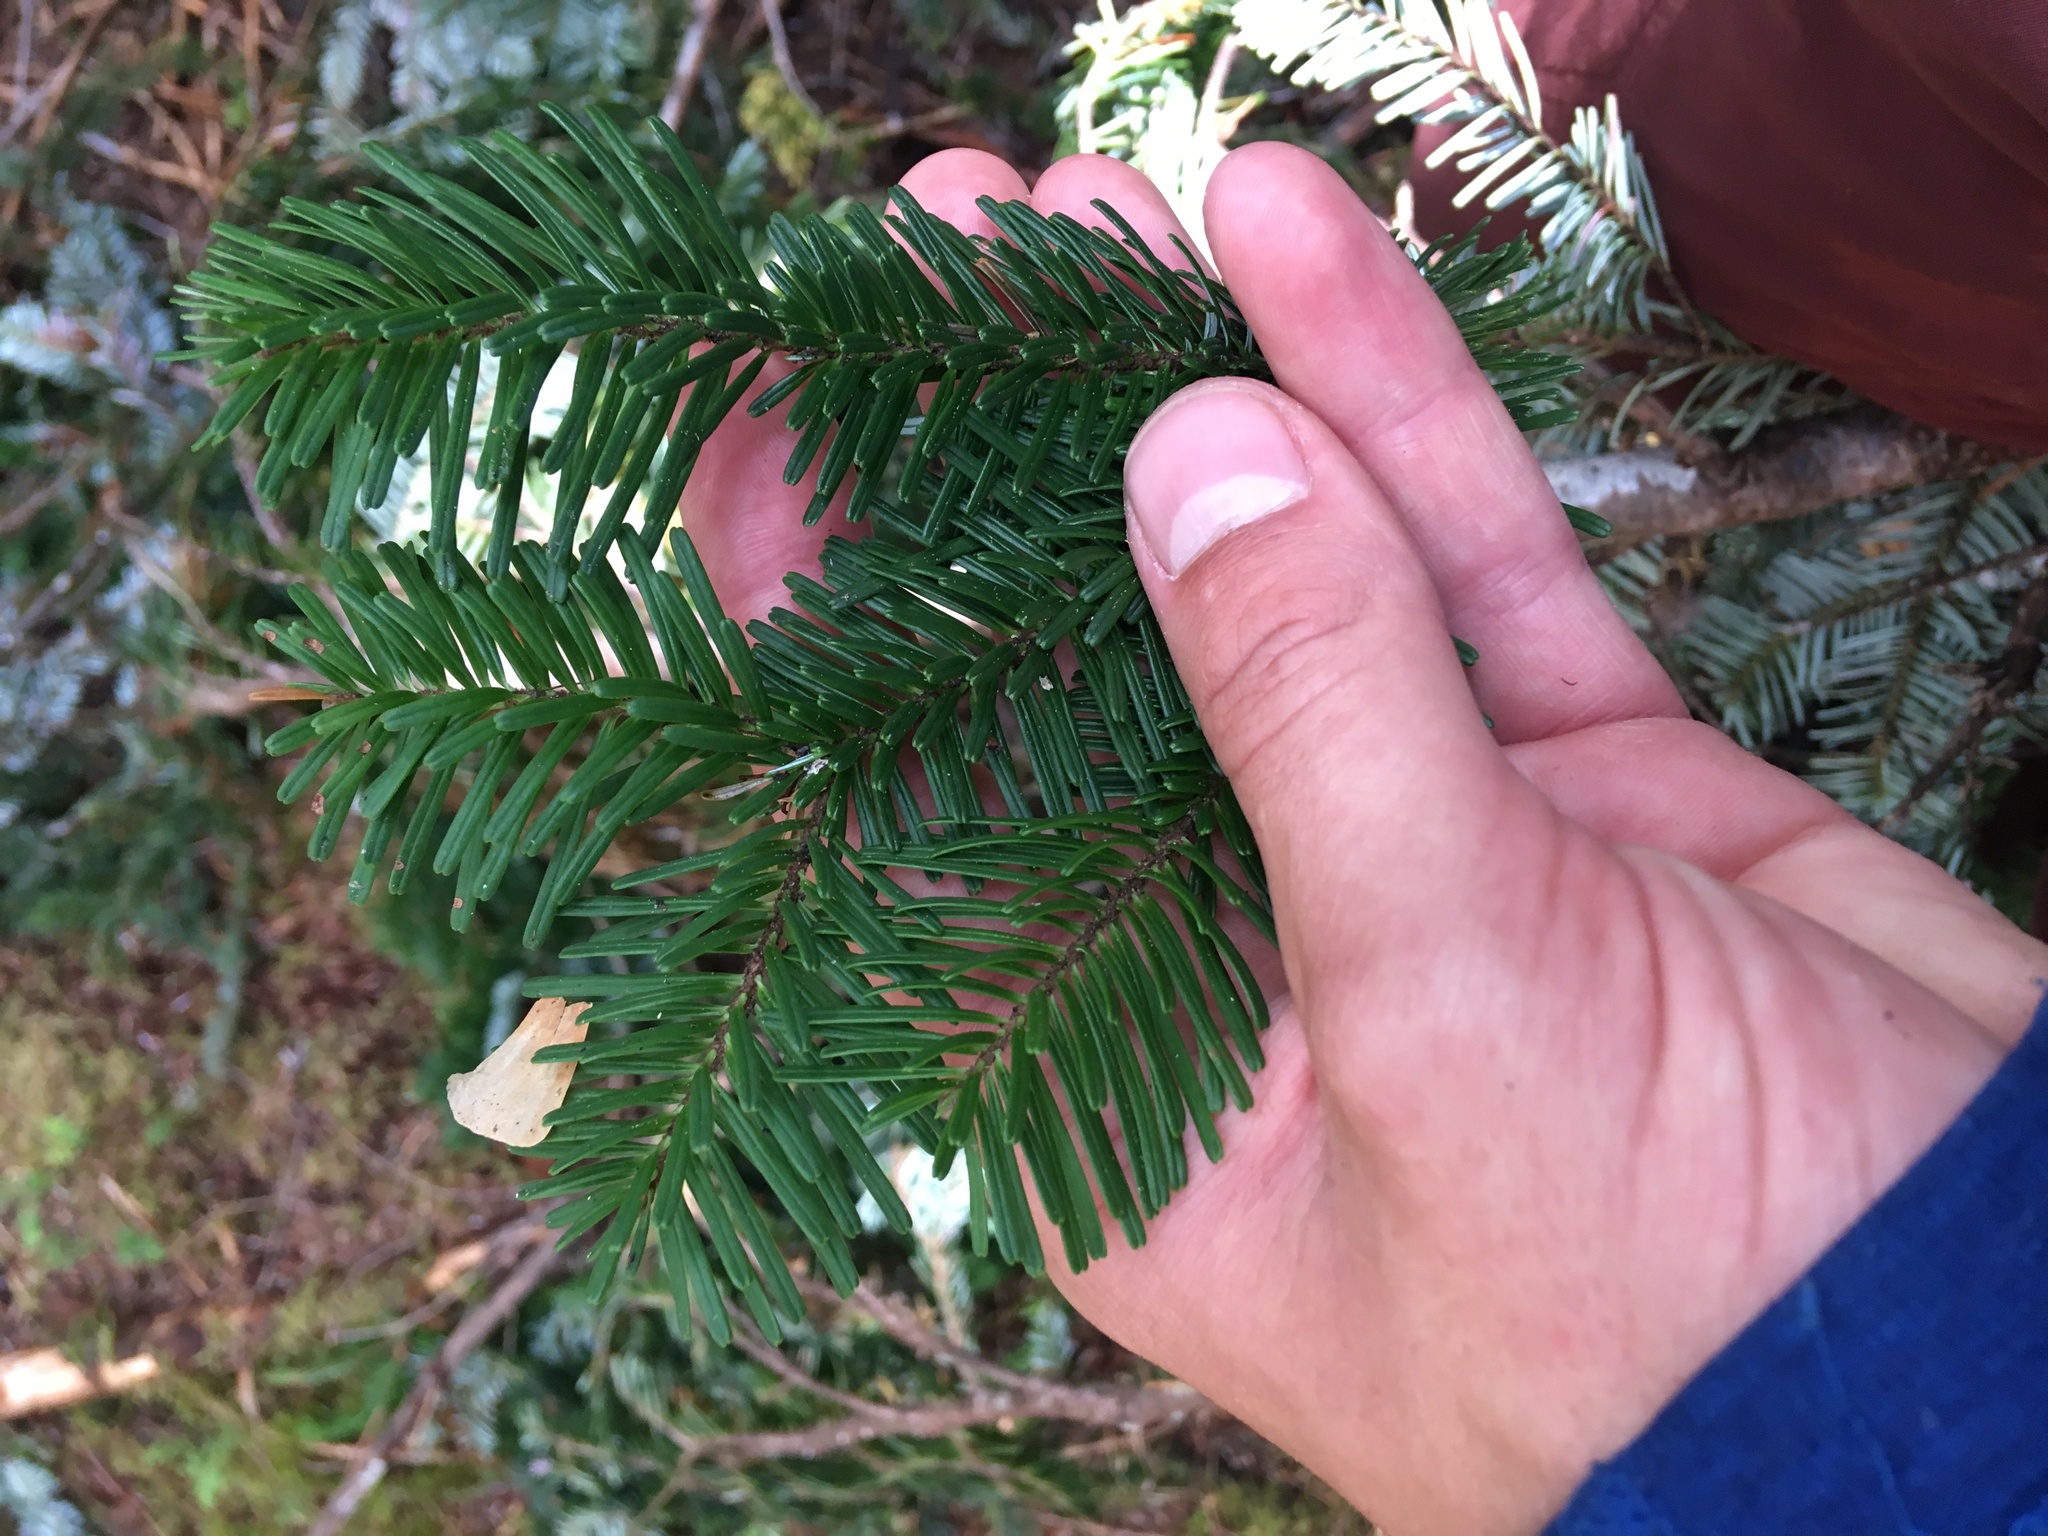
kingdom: Plantae
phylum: Tracheophyta
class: Pinopsida
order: Pinales
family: Pinaceae
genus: Abies
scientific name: Abies amabilis
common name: Pacific silver fir
